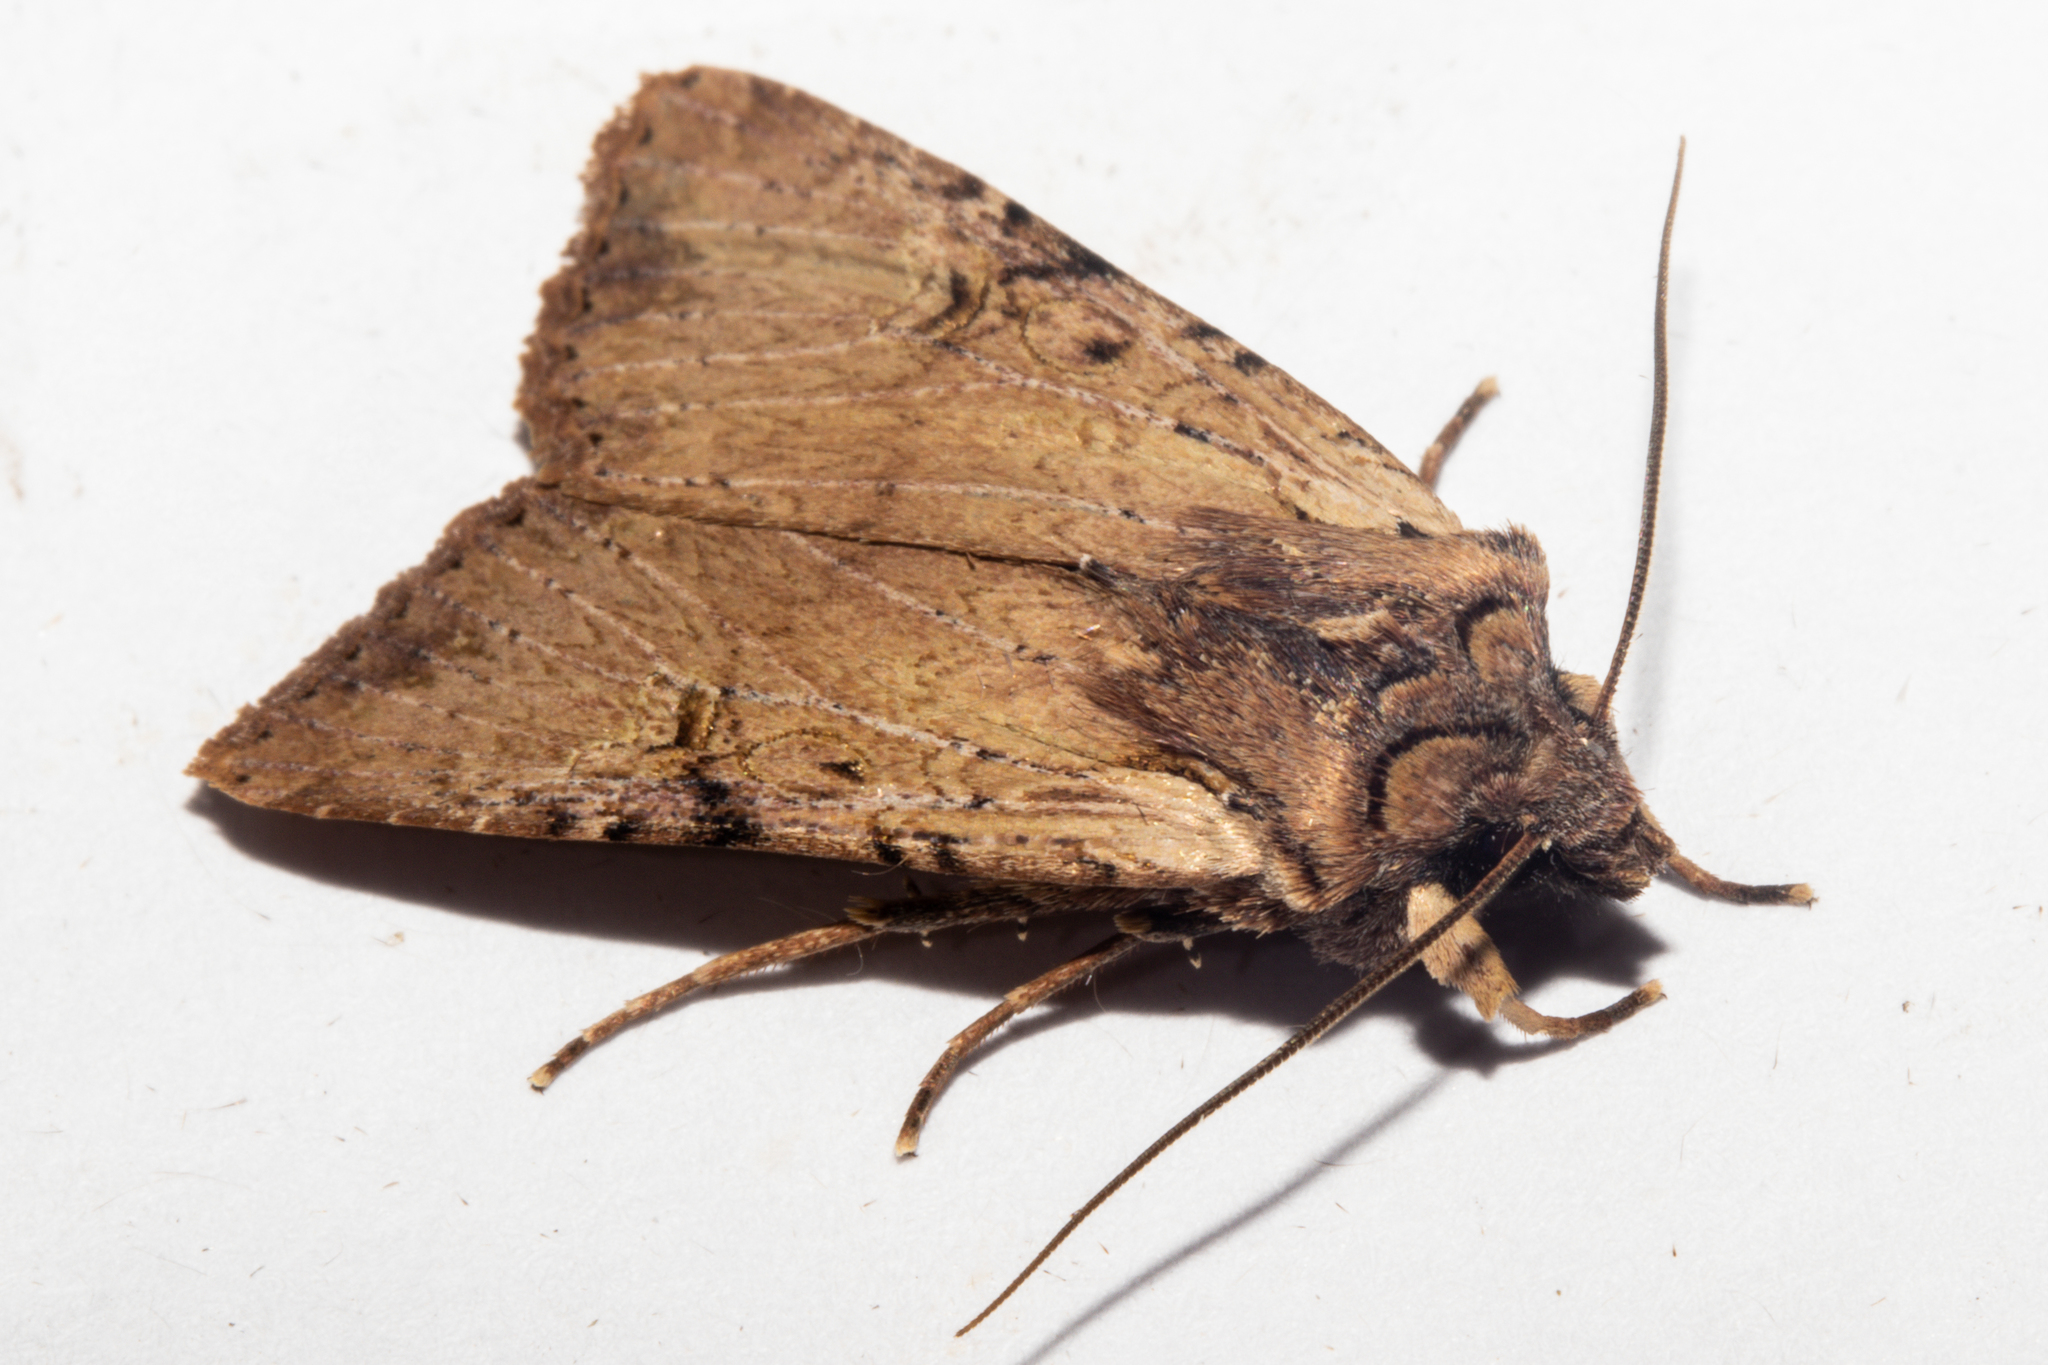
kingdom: Animalia
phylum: Arthropoda
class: Insecta
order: Lepidoptera
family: Noctuidae
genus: Ichneutica
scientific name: Ichneutica omoplaca
